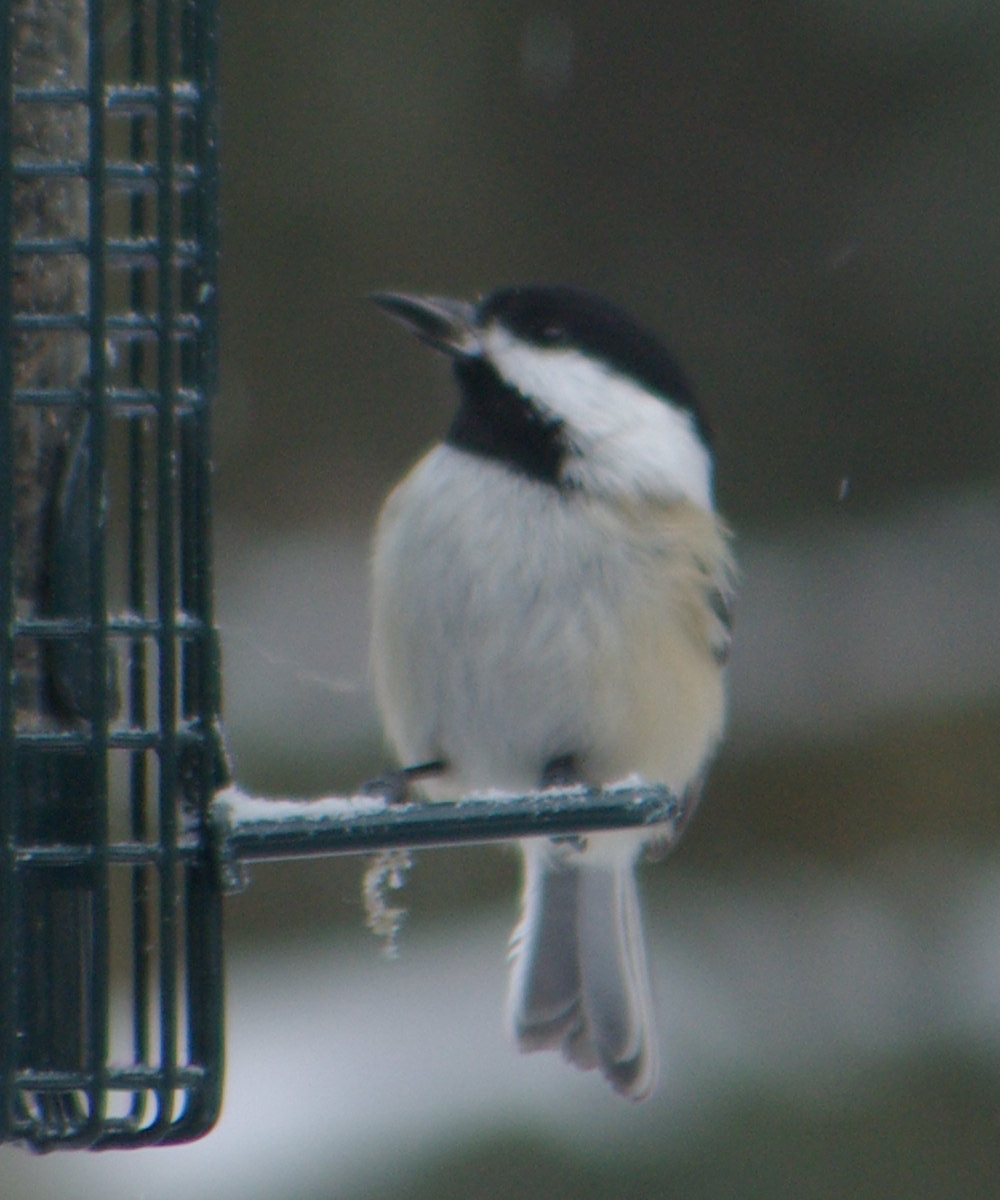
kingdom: Animalia
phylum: Chordata
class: Aves
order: Passeriformes
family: Paridae
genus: Poecile
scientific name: Poecile atricapillus
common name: Black-capped chickadee
